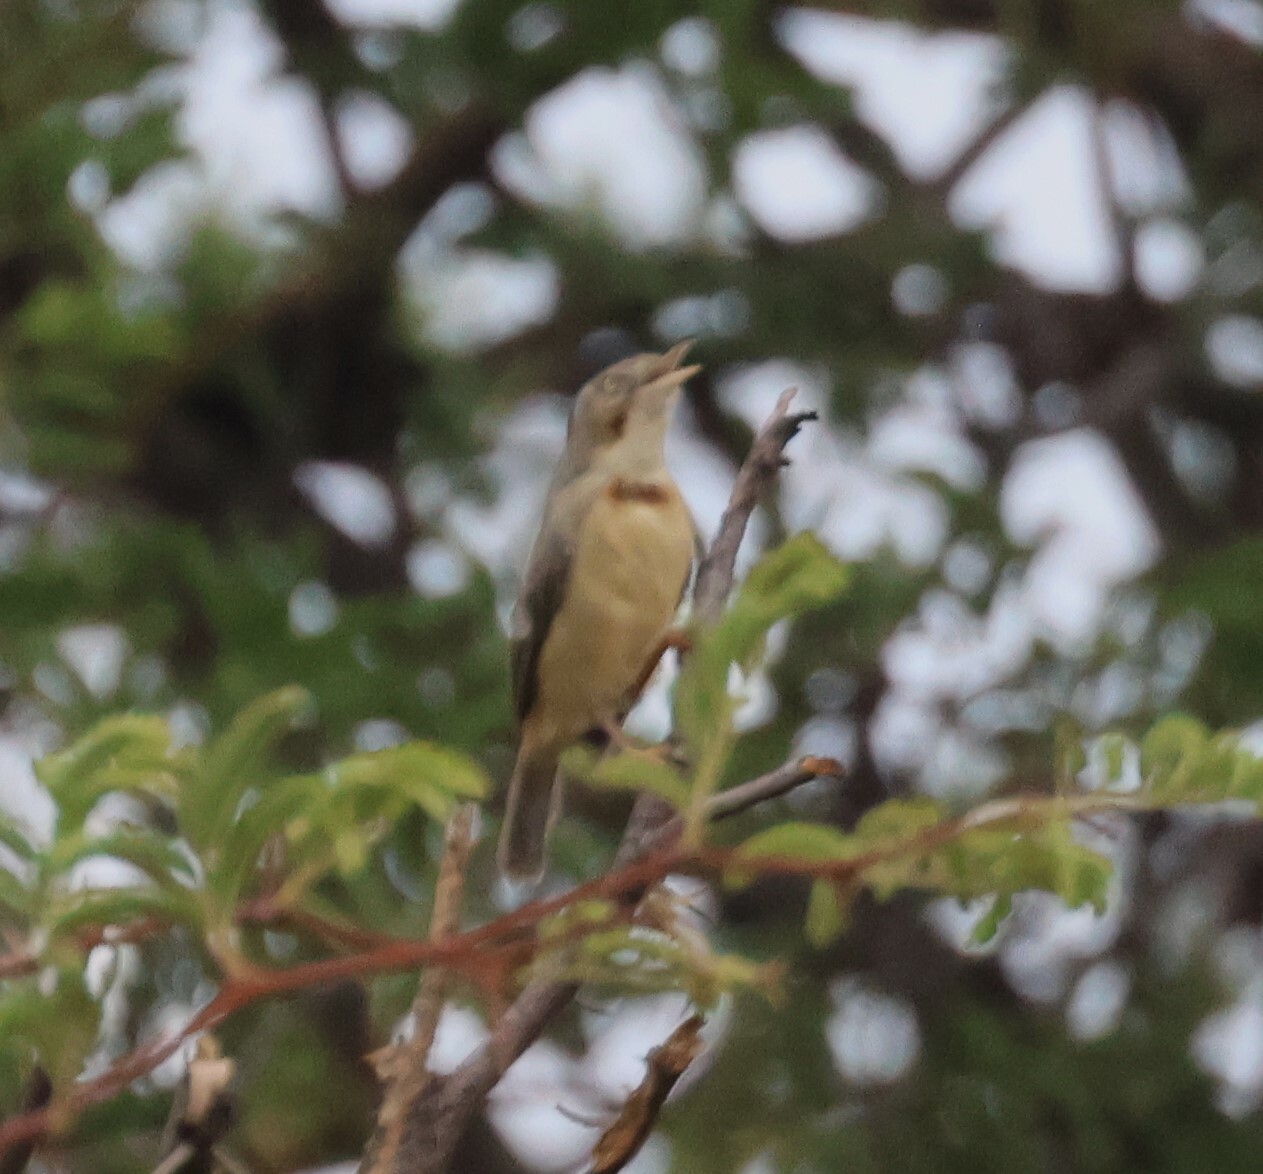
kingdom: Animalia
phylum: Chordata
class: Aves
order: Passeriformes
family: Cisticolidae
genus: Eremomela
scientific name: Eremomela usticollis
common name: Burnt-neck eremomela
